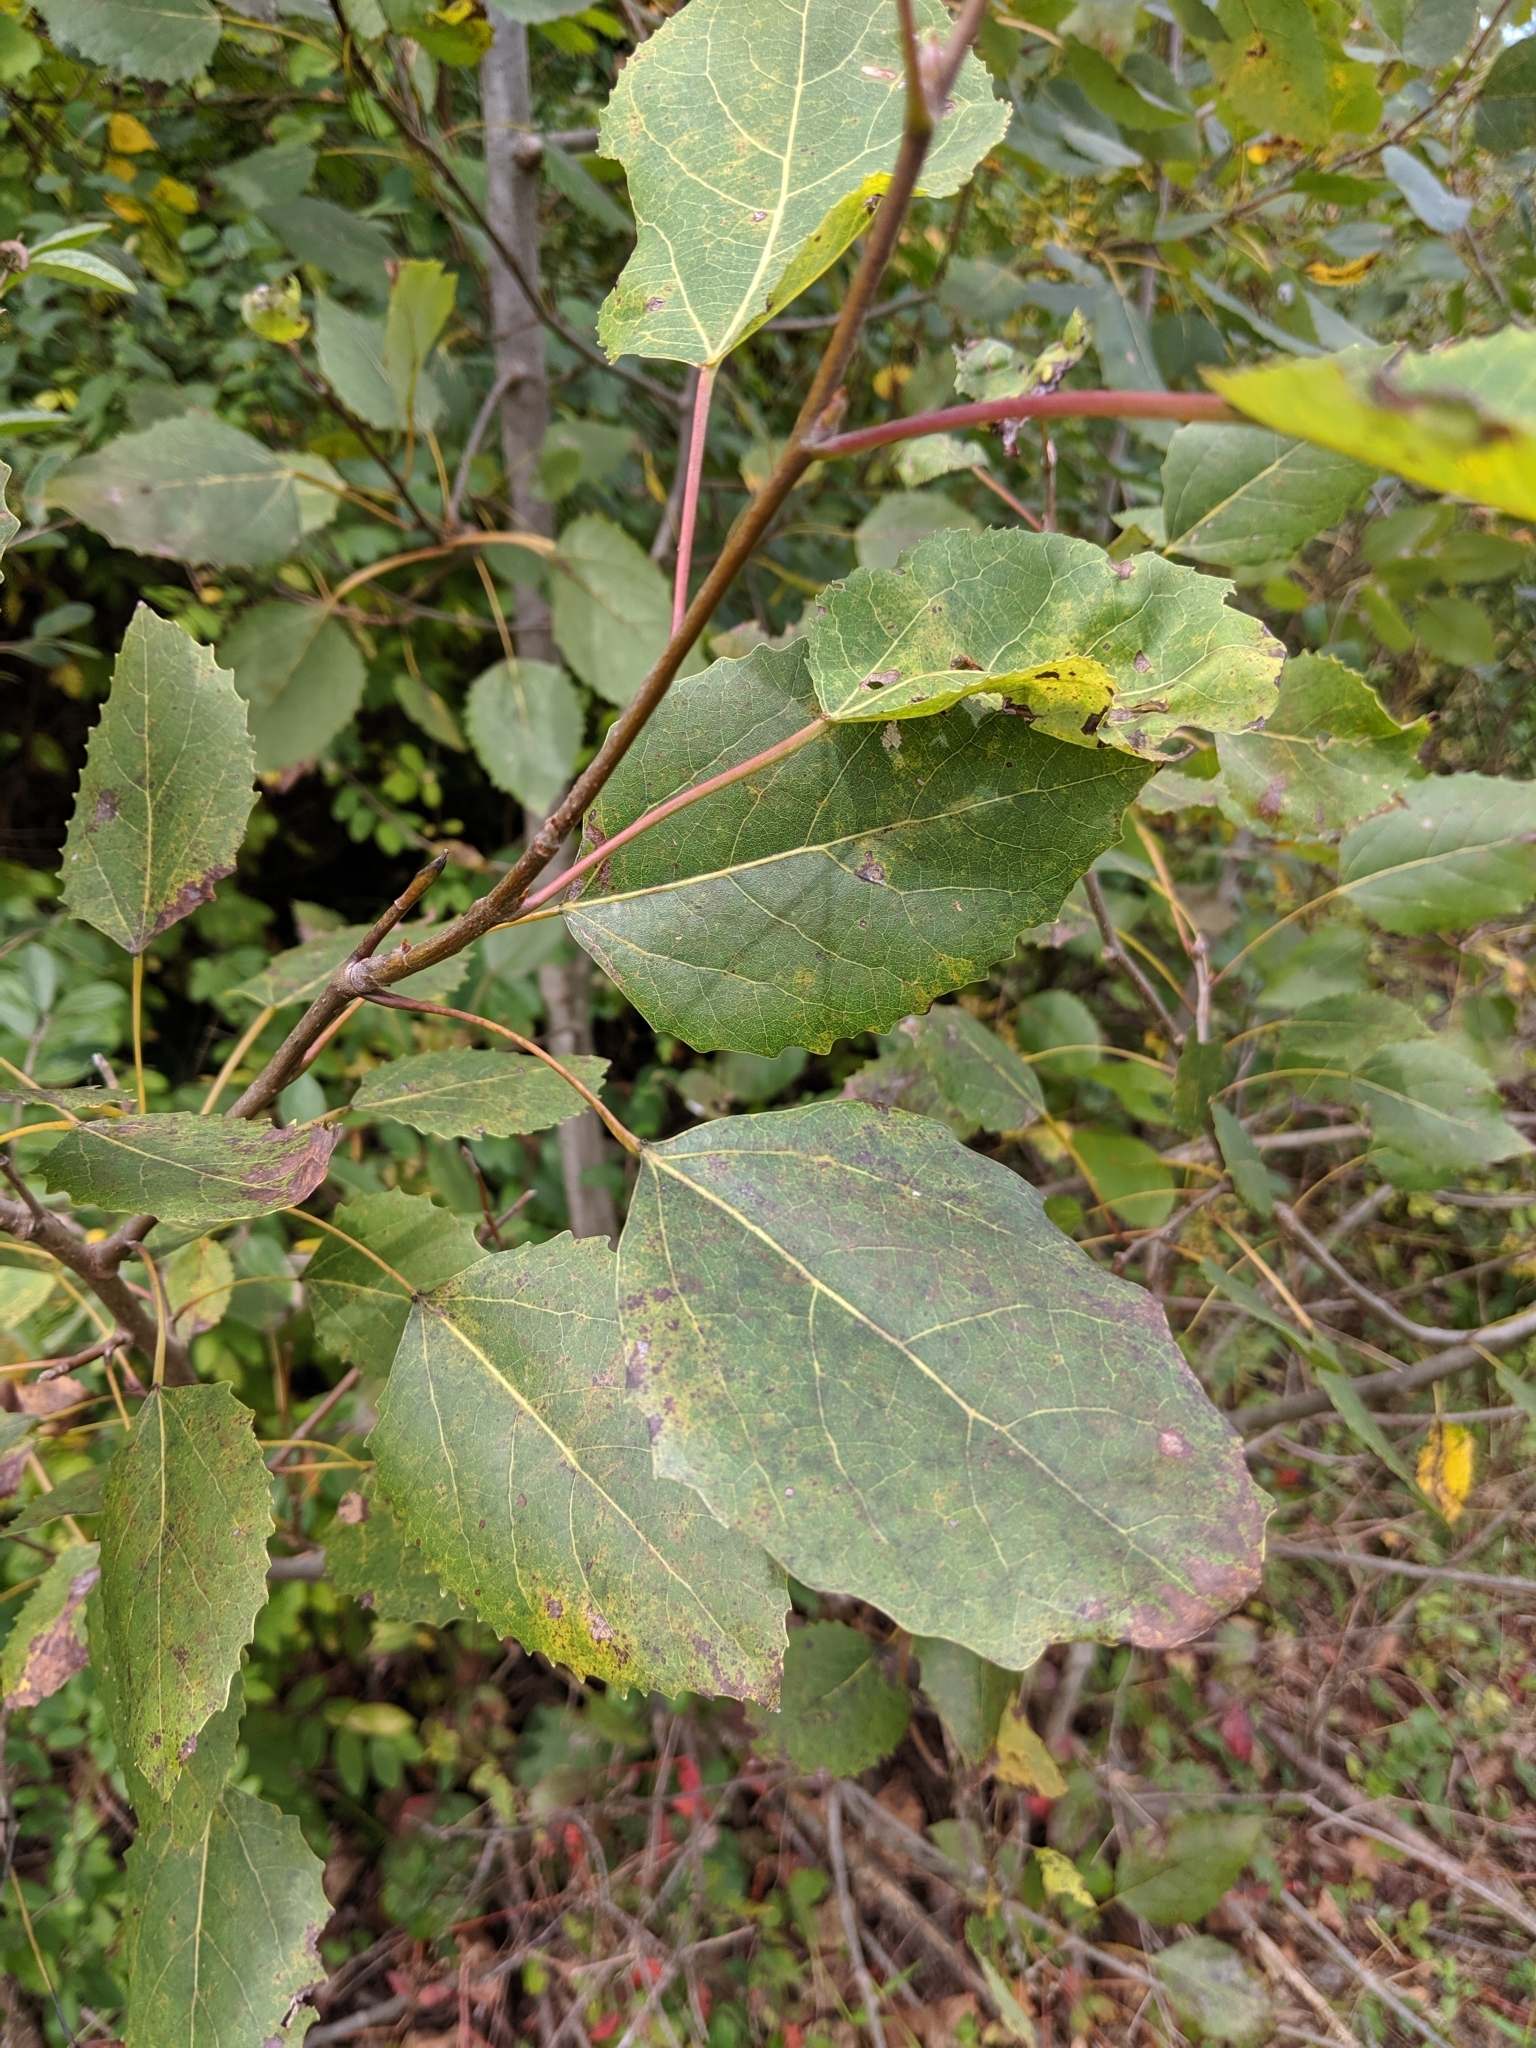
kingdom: Plantae
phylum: Tracheophyta
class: Magnoliopsida
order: Malpighiales
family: Salicaceae
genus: Populus
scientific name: Populus grandidentata
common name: Bigtooth aspen
